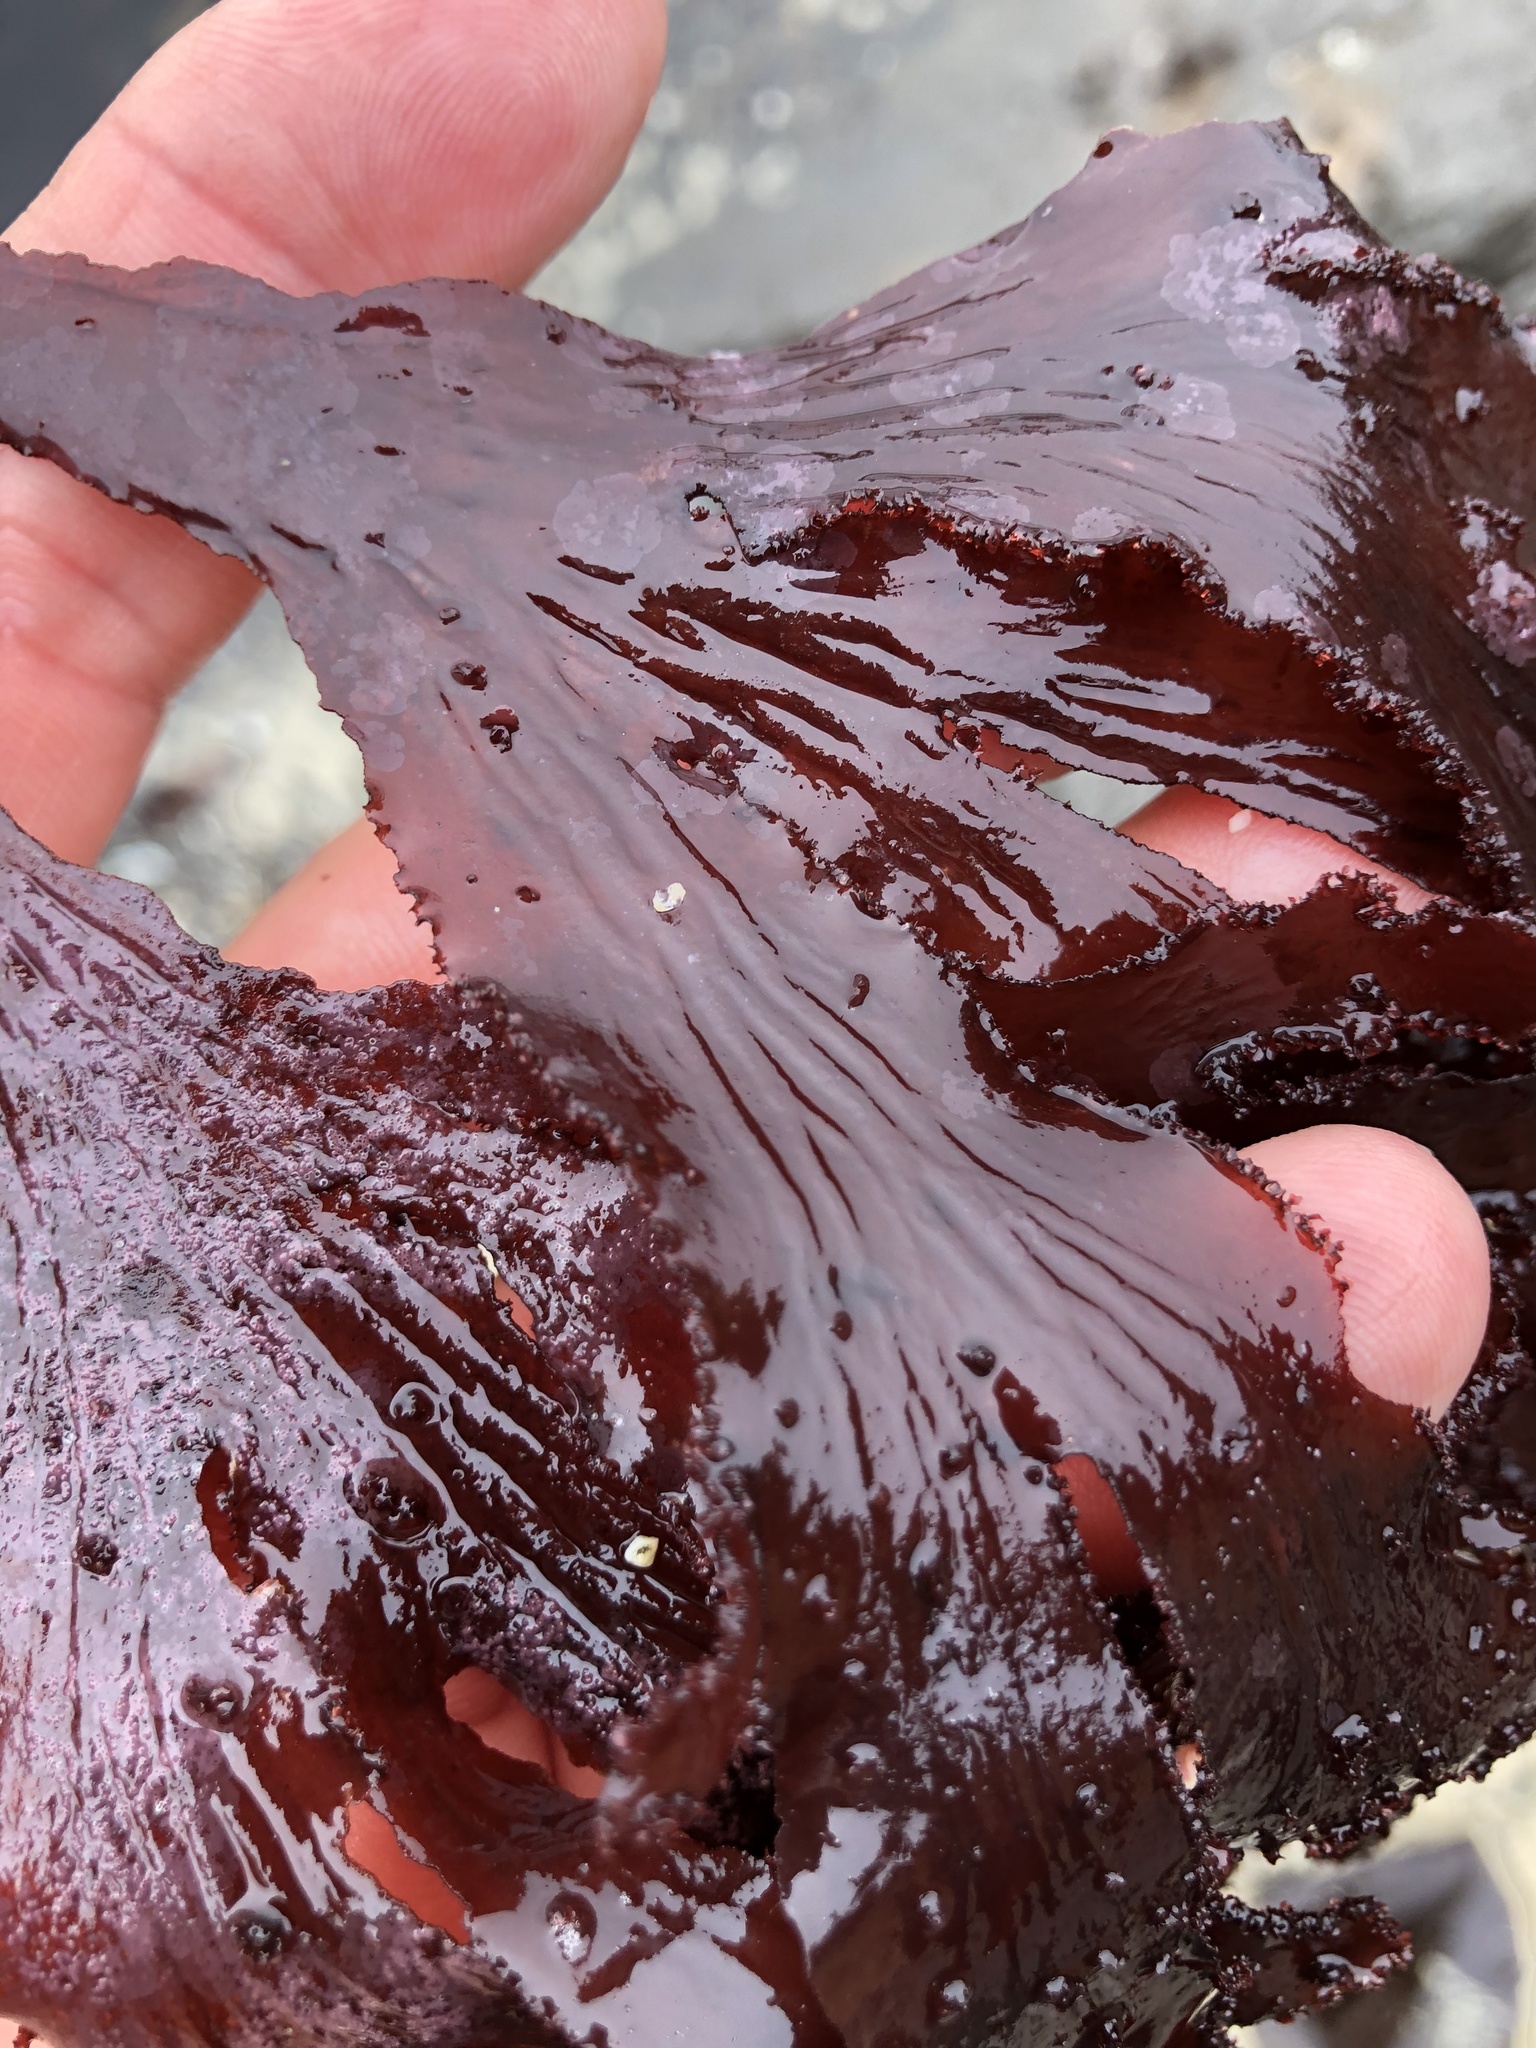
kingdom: Plantae
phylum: Rhodophyta
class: Florideophyceae
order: Ceramiales
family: Delesseriaceae
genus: Cryptopleura
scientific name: Cryptopleura ruprechtiana
